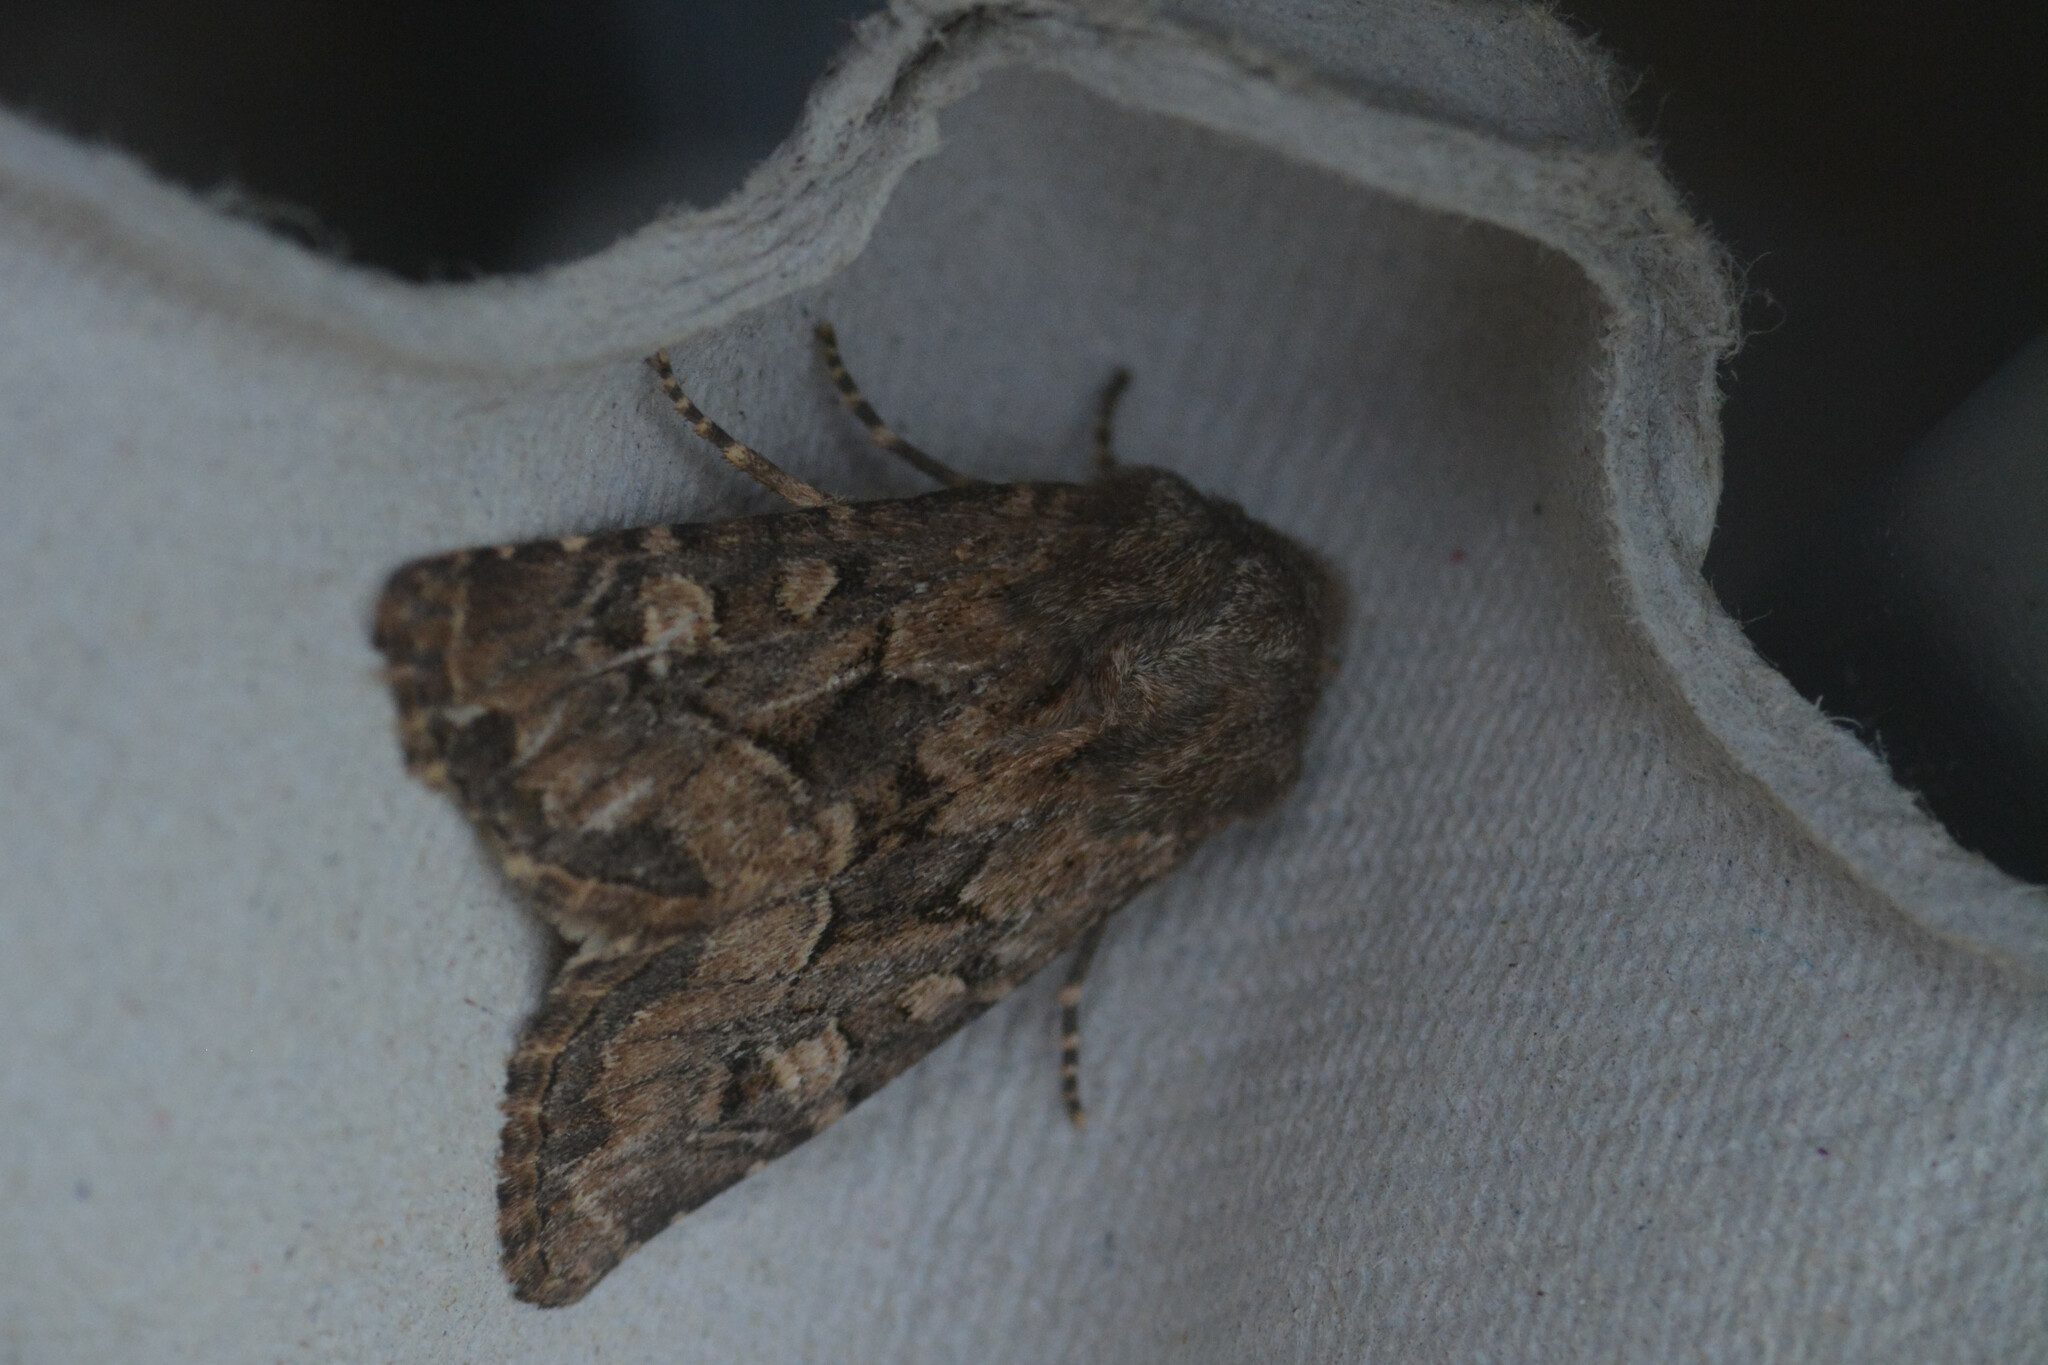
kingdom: Animalia
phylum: Arthropoda
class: Insecta
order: Lepidoptera
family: Noctuidae
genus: Luperina
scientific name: Luperina testacea
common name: Flounced rustic
